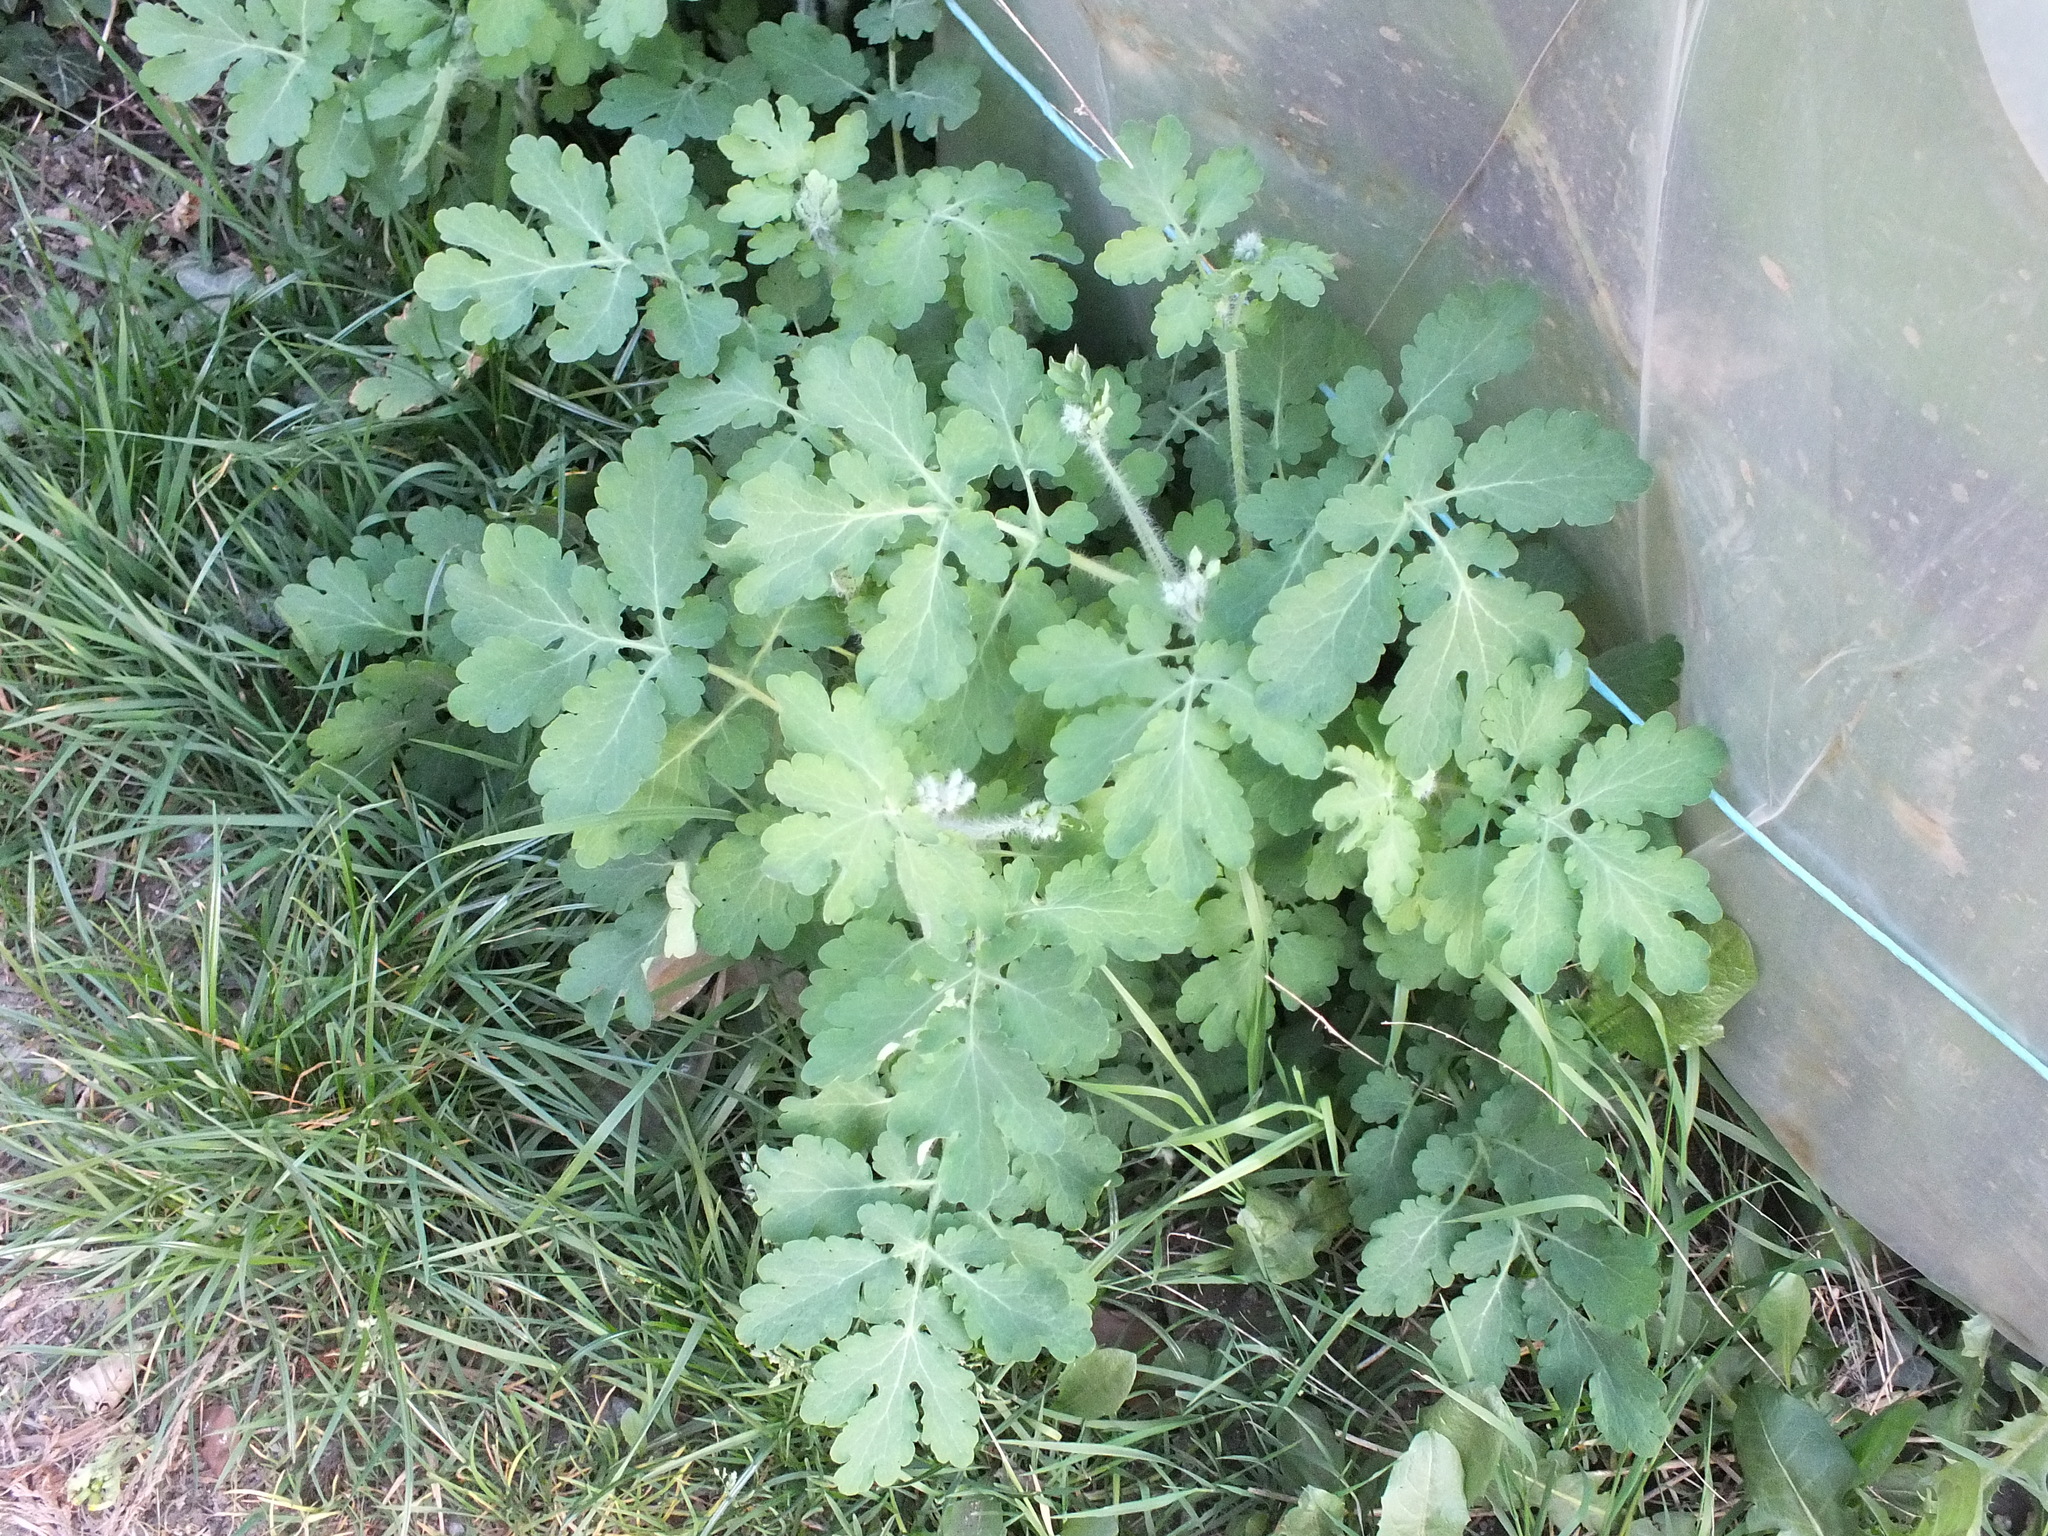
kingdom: Plantae
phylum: Tracheophyta
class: Magnoliopsida
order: Ranunculales
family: Papaveraceae
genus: Chelidonium
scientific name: Chelidonium majus
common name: Greater celandine
